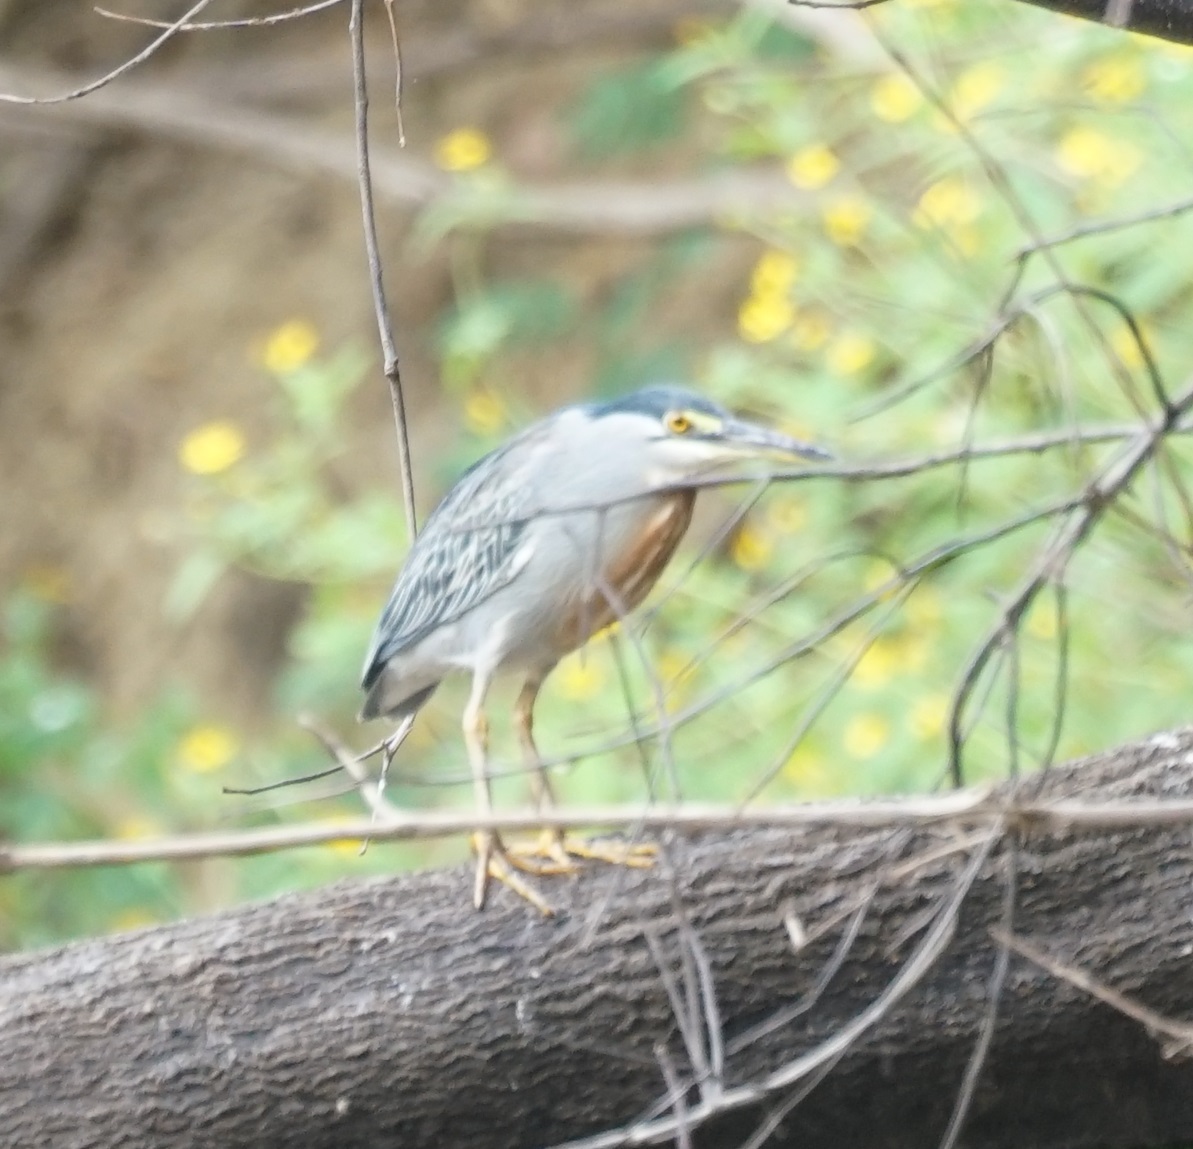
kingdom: Animalia
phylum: Chordata
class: Aves
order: Pelecaniformes
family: Ardeidae
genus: Butorides
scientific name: Butorides striata
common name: Striated heron
